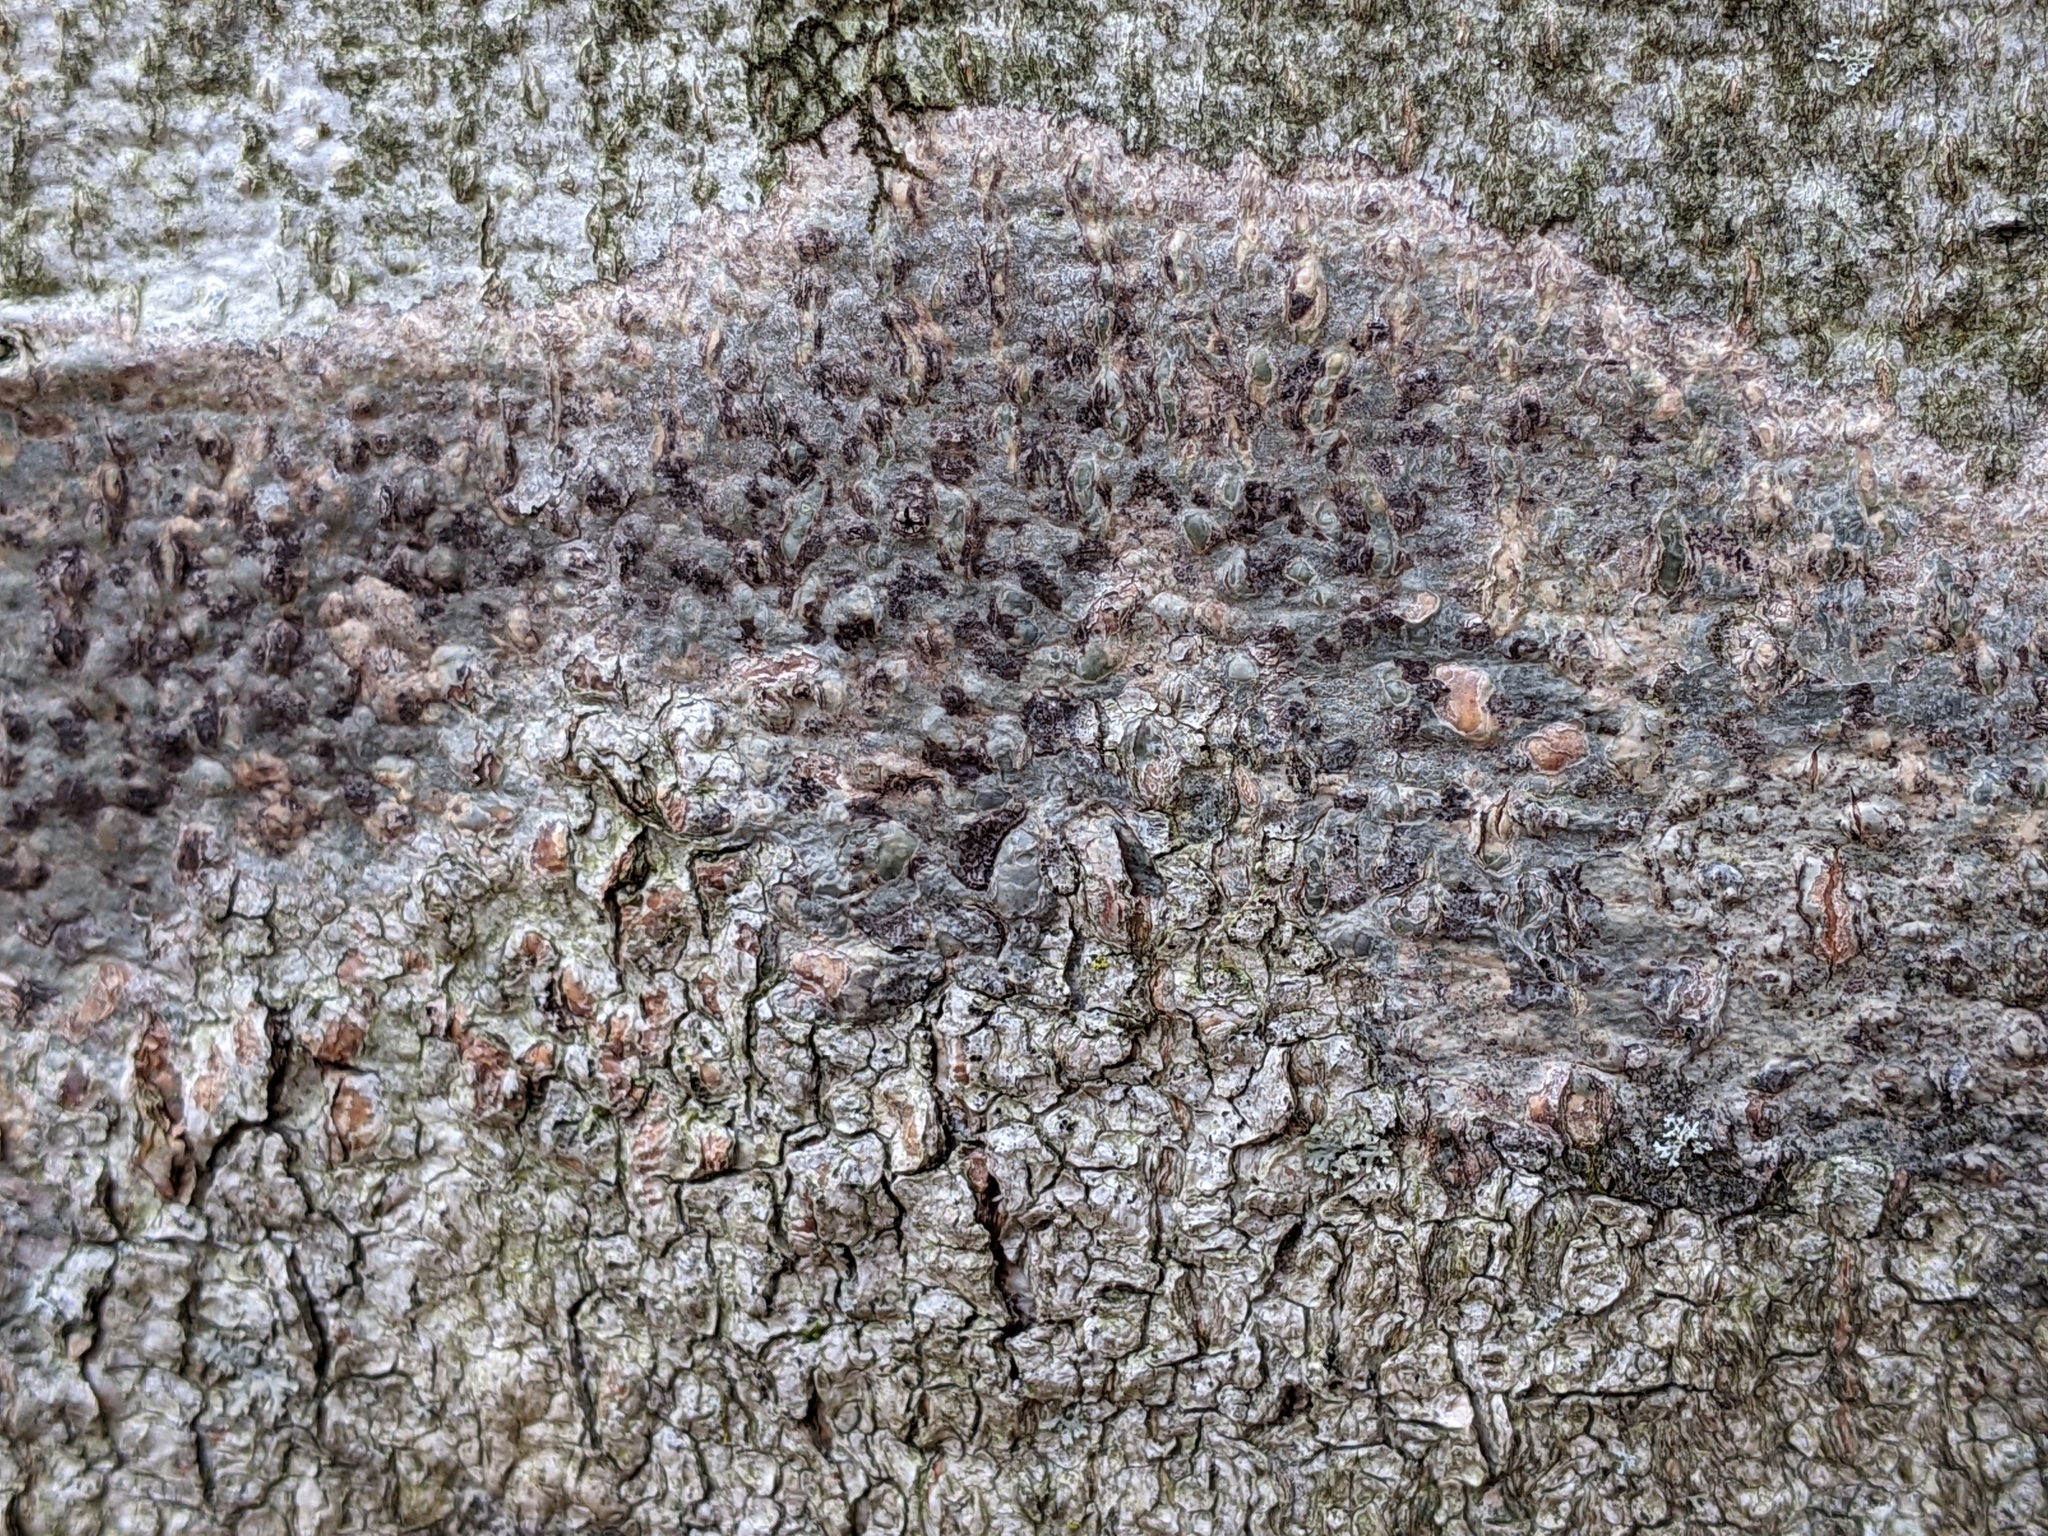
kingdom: Fungi
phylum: Ascomycota
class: Dothideomycetes
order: Trypetheliales
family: Trypetheliaceae
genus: Viridothelium
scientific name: Viridothelium virens
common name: Speckled blister lichen
